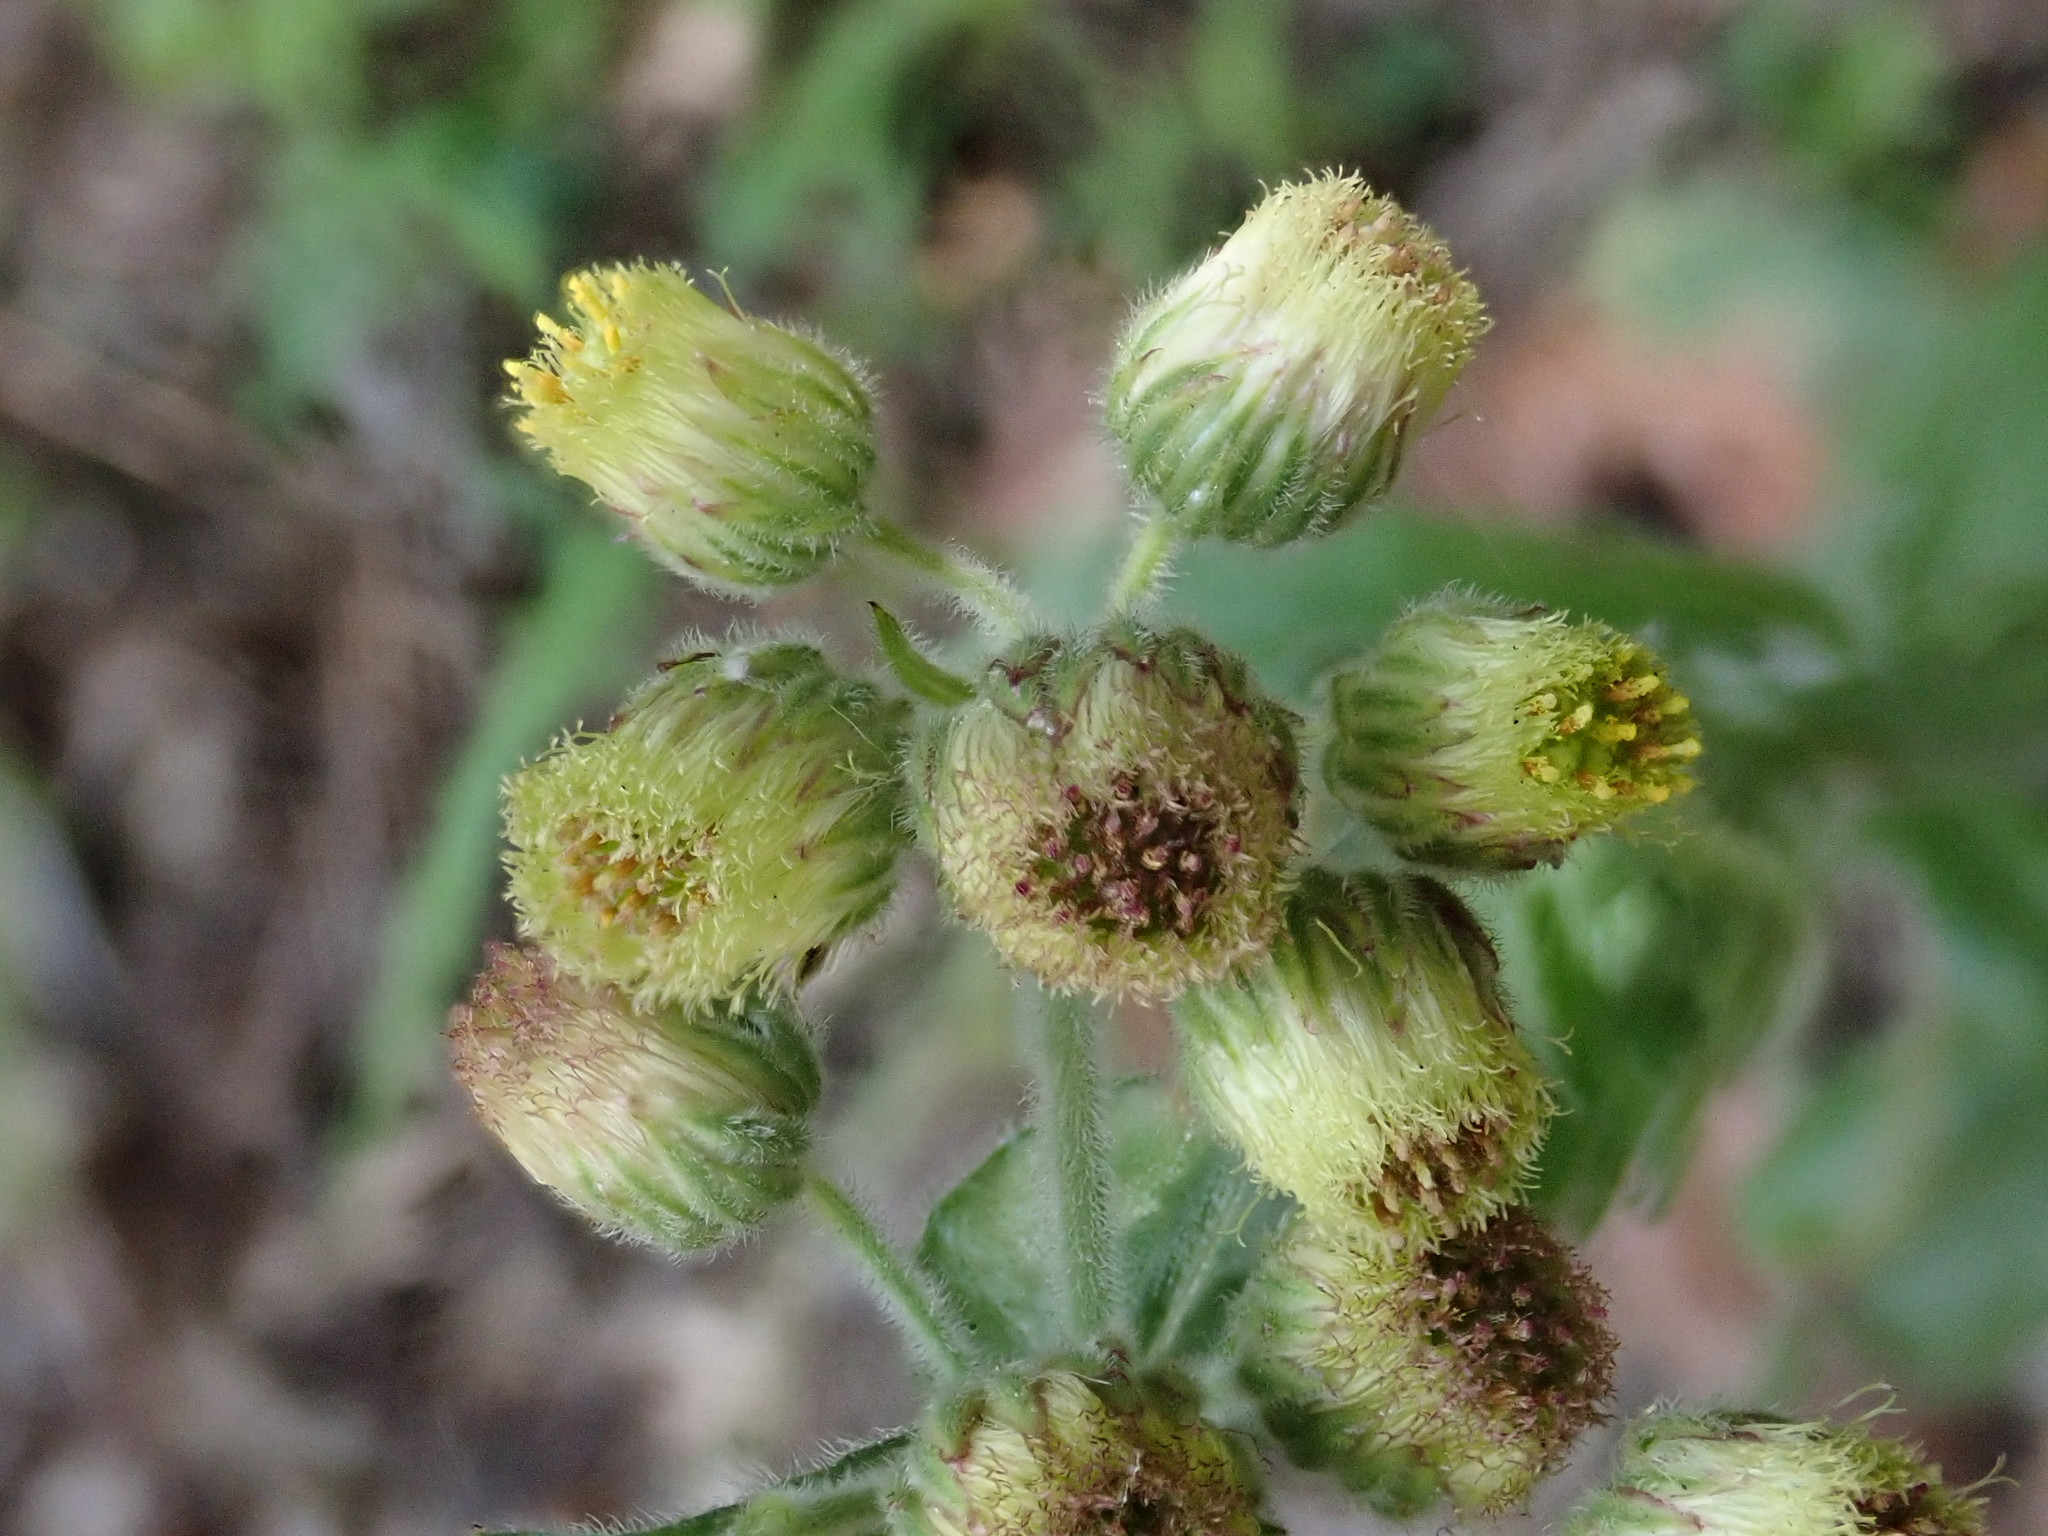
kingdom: Plantae
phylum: Tracheophyta
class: Magnoliopsida
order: Asterales
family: Asteraceae
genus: Eschenbachia
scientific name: Eschenbachia japonica
